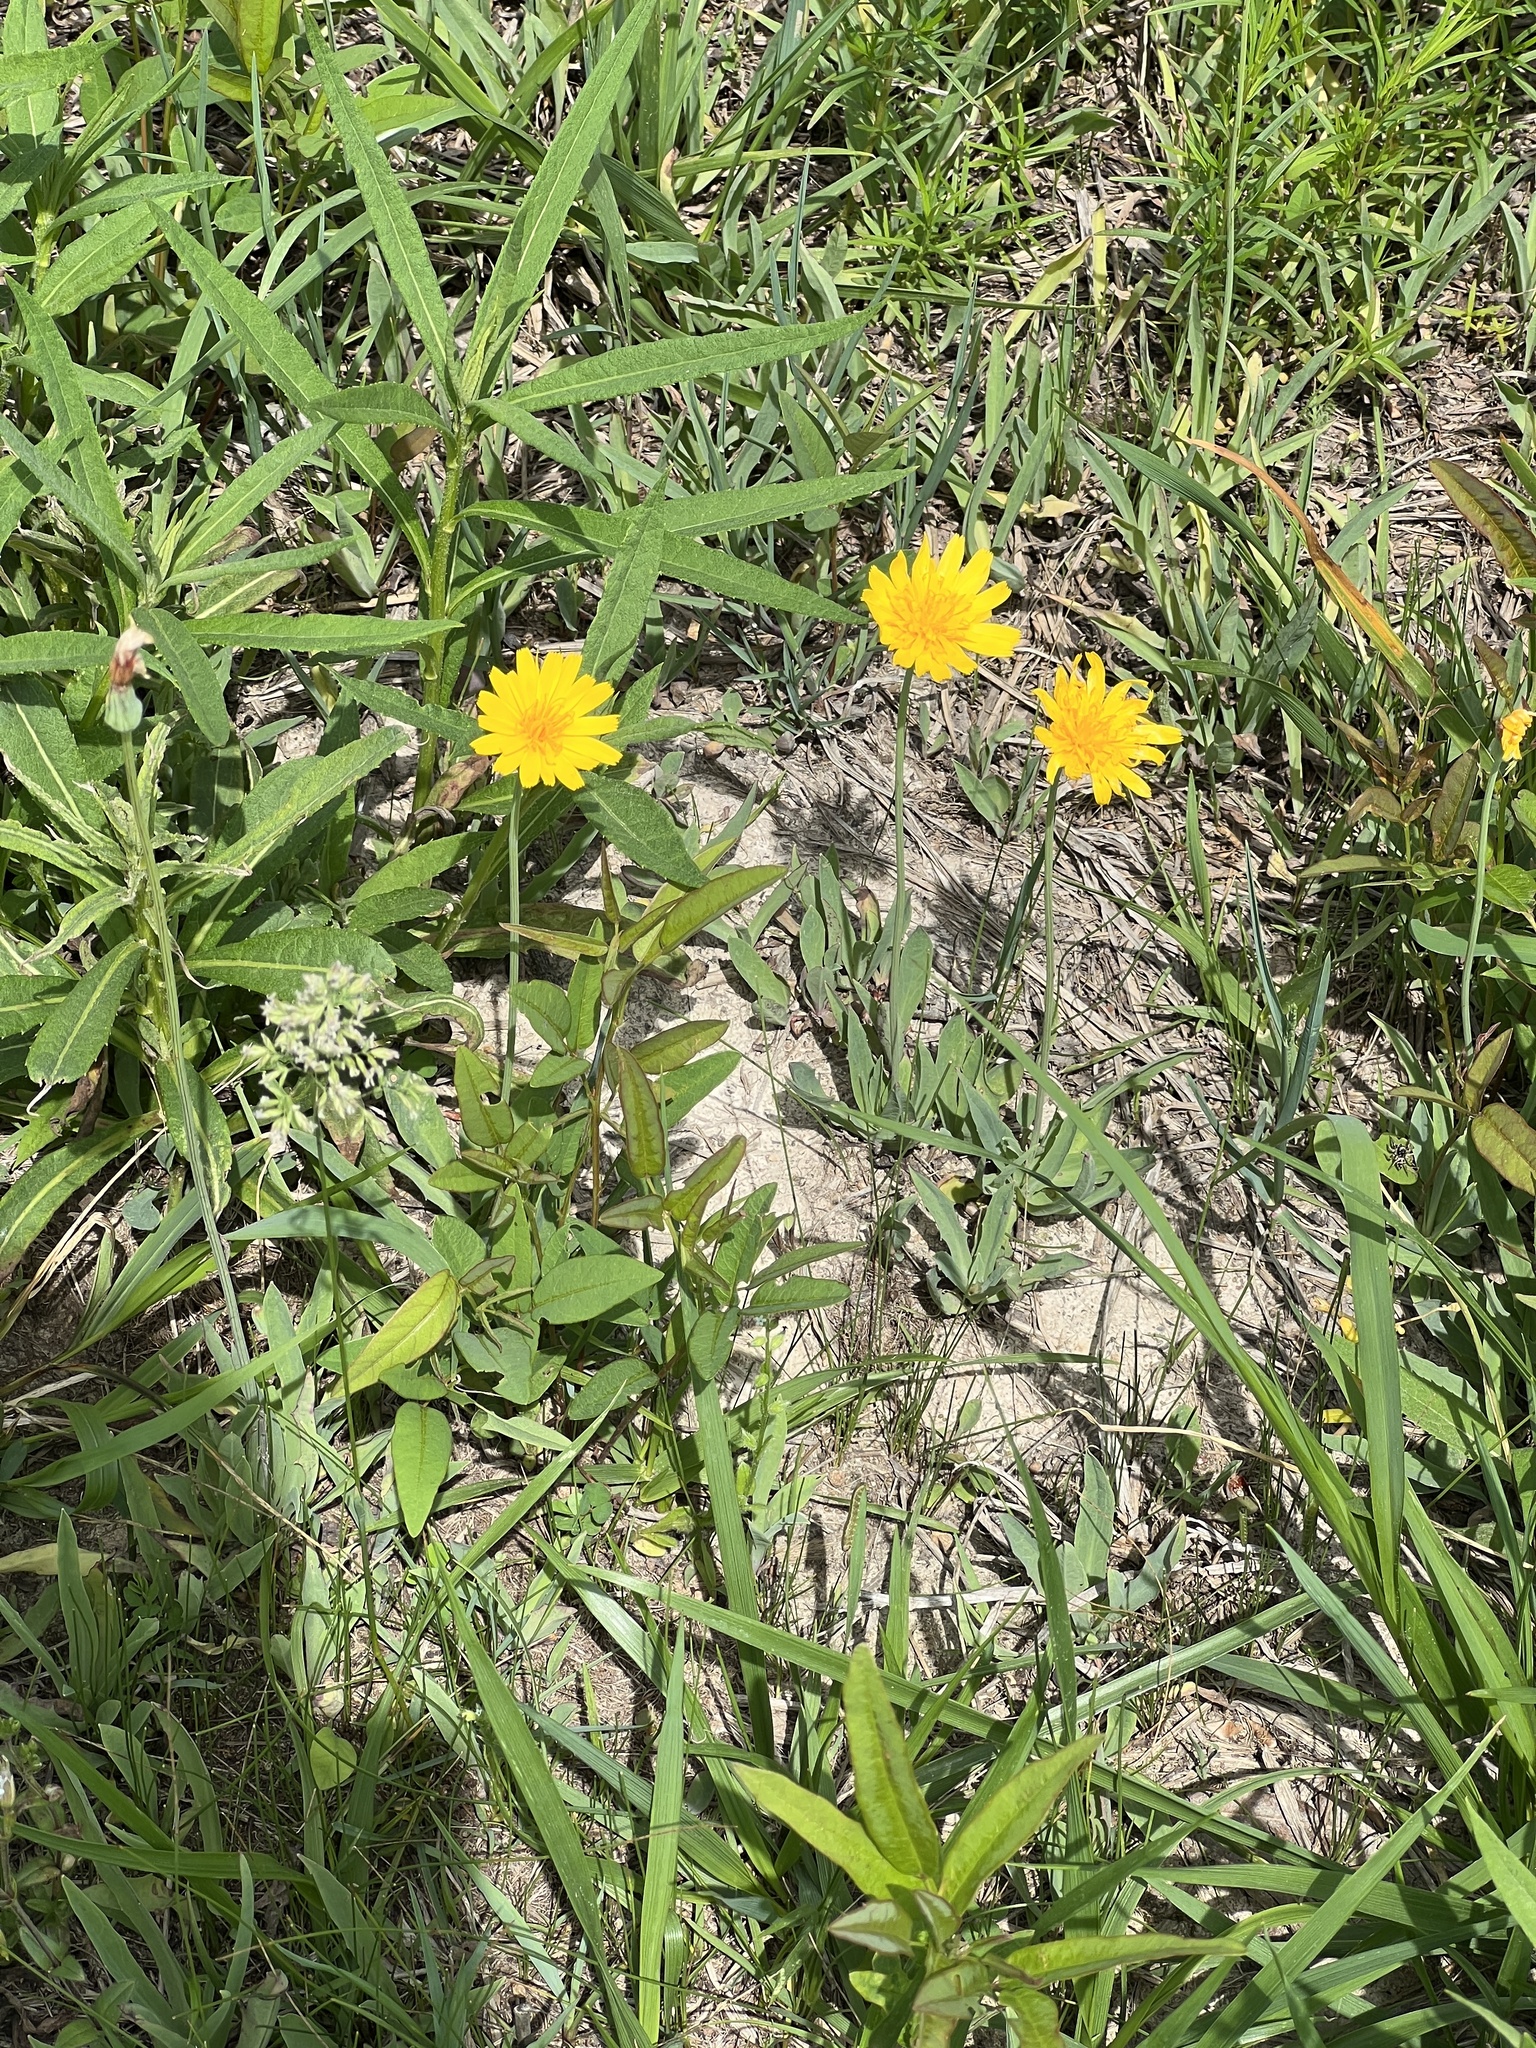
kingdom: Plantae
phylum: Tracheophyta
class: Magnoliopsida
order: Asterales
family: Asteraceae
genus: Krigia
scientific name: Krigia dandelion
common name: Colonial dwarf-dandelion
